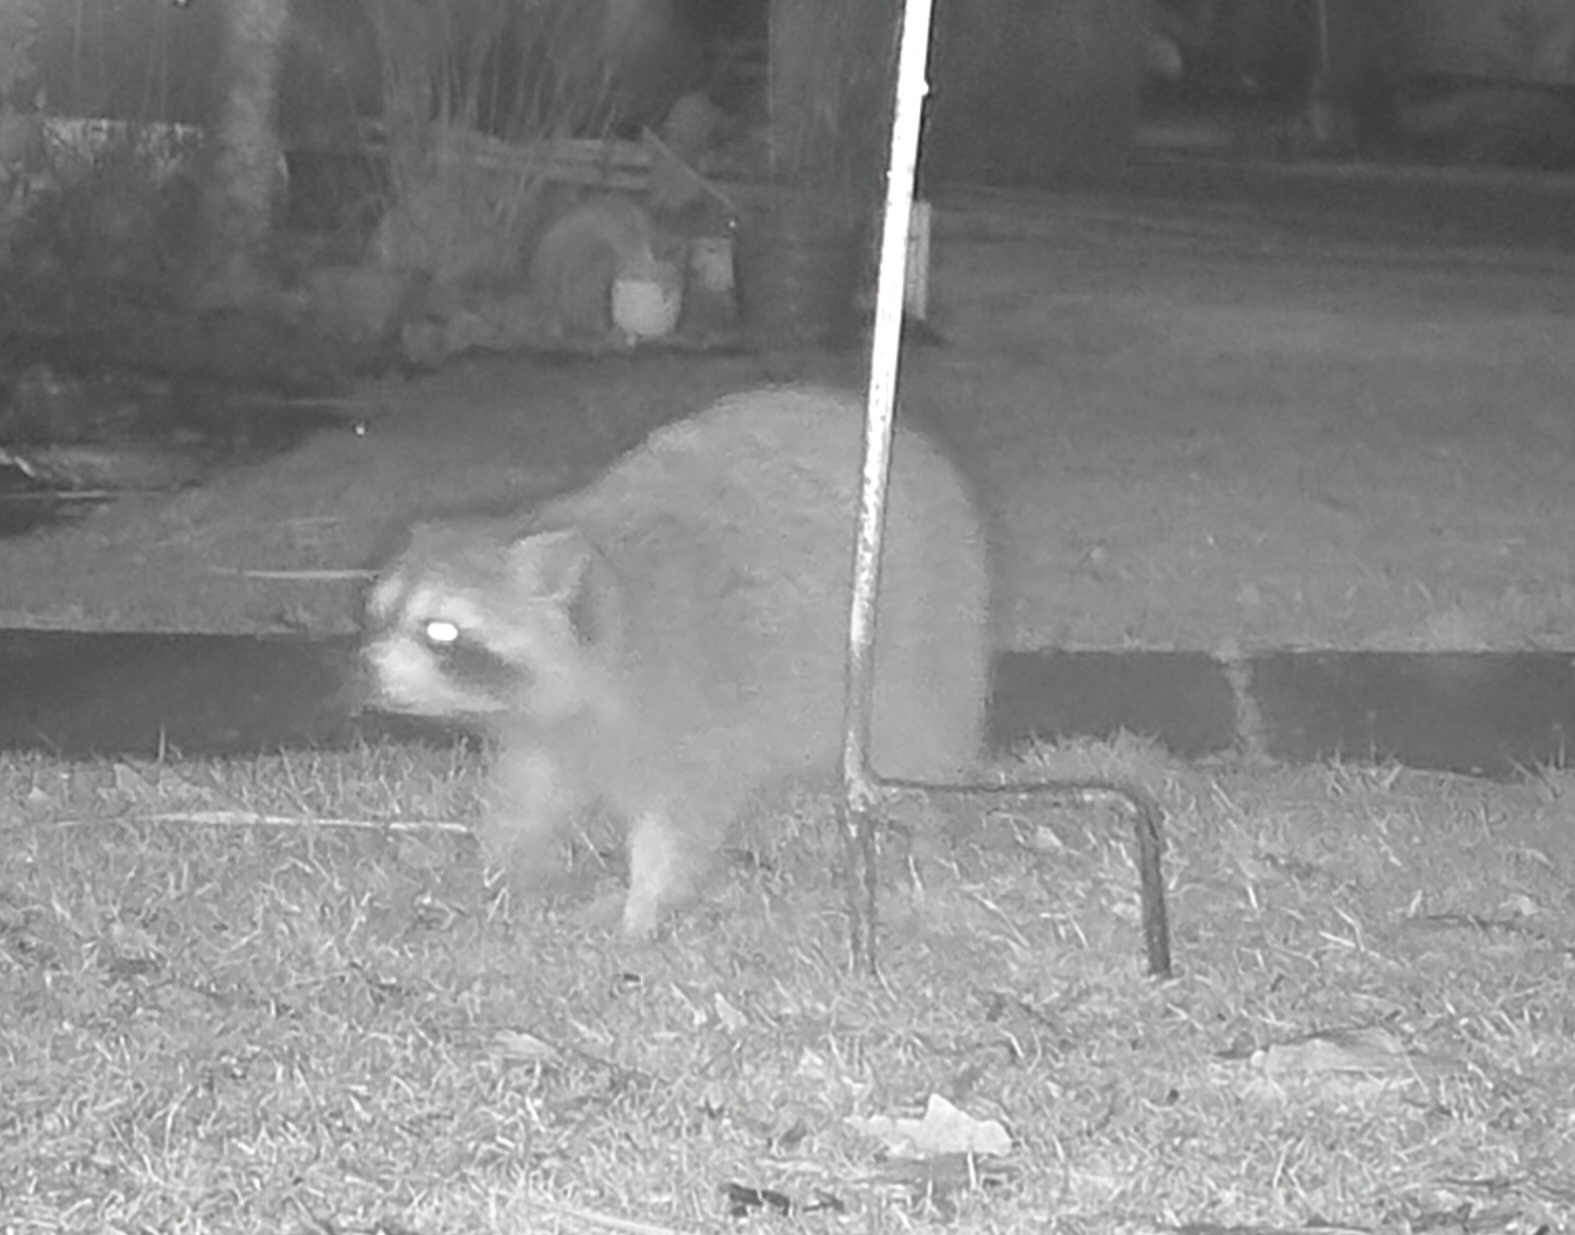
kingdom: Animalia
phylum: Chordata
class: Mammalia
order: Carnivora
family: Procyonidae
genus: Procyon
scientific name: Procyon lotor
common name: Raccoon
